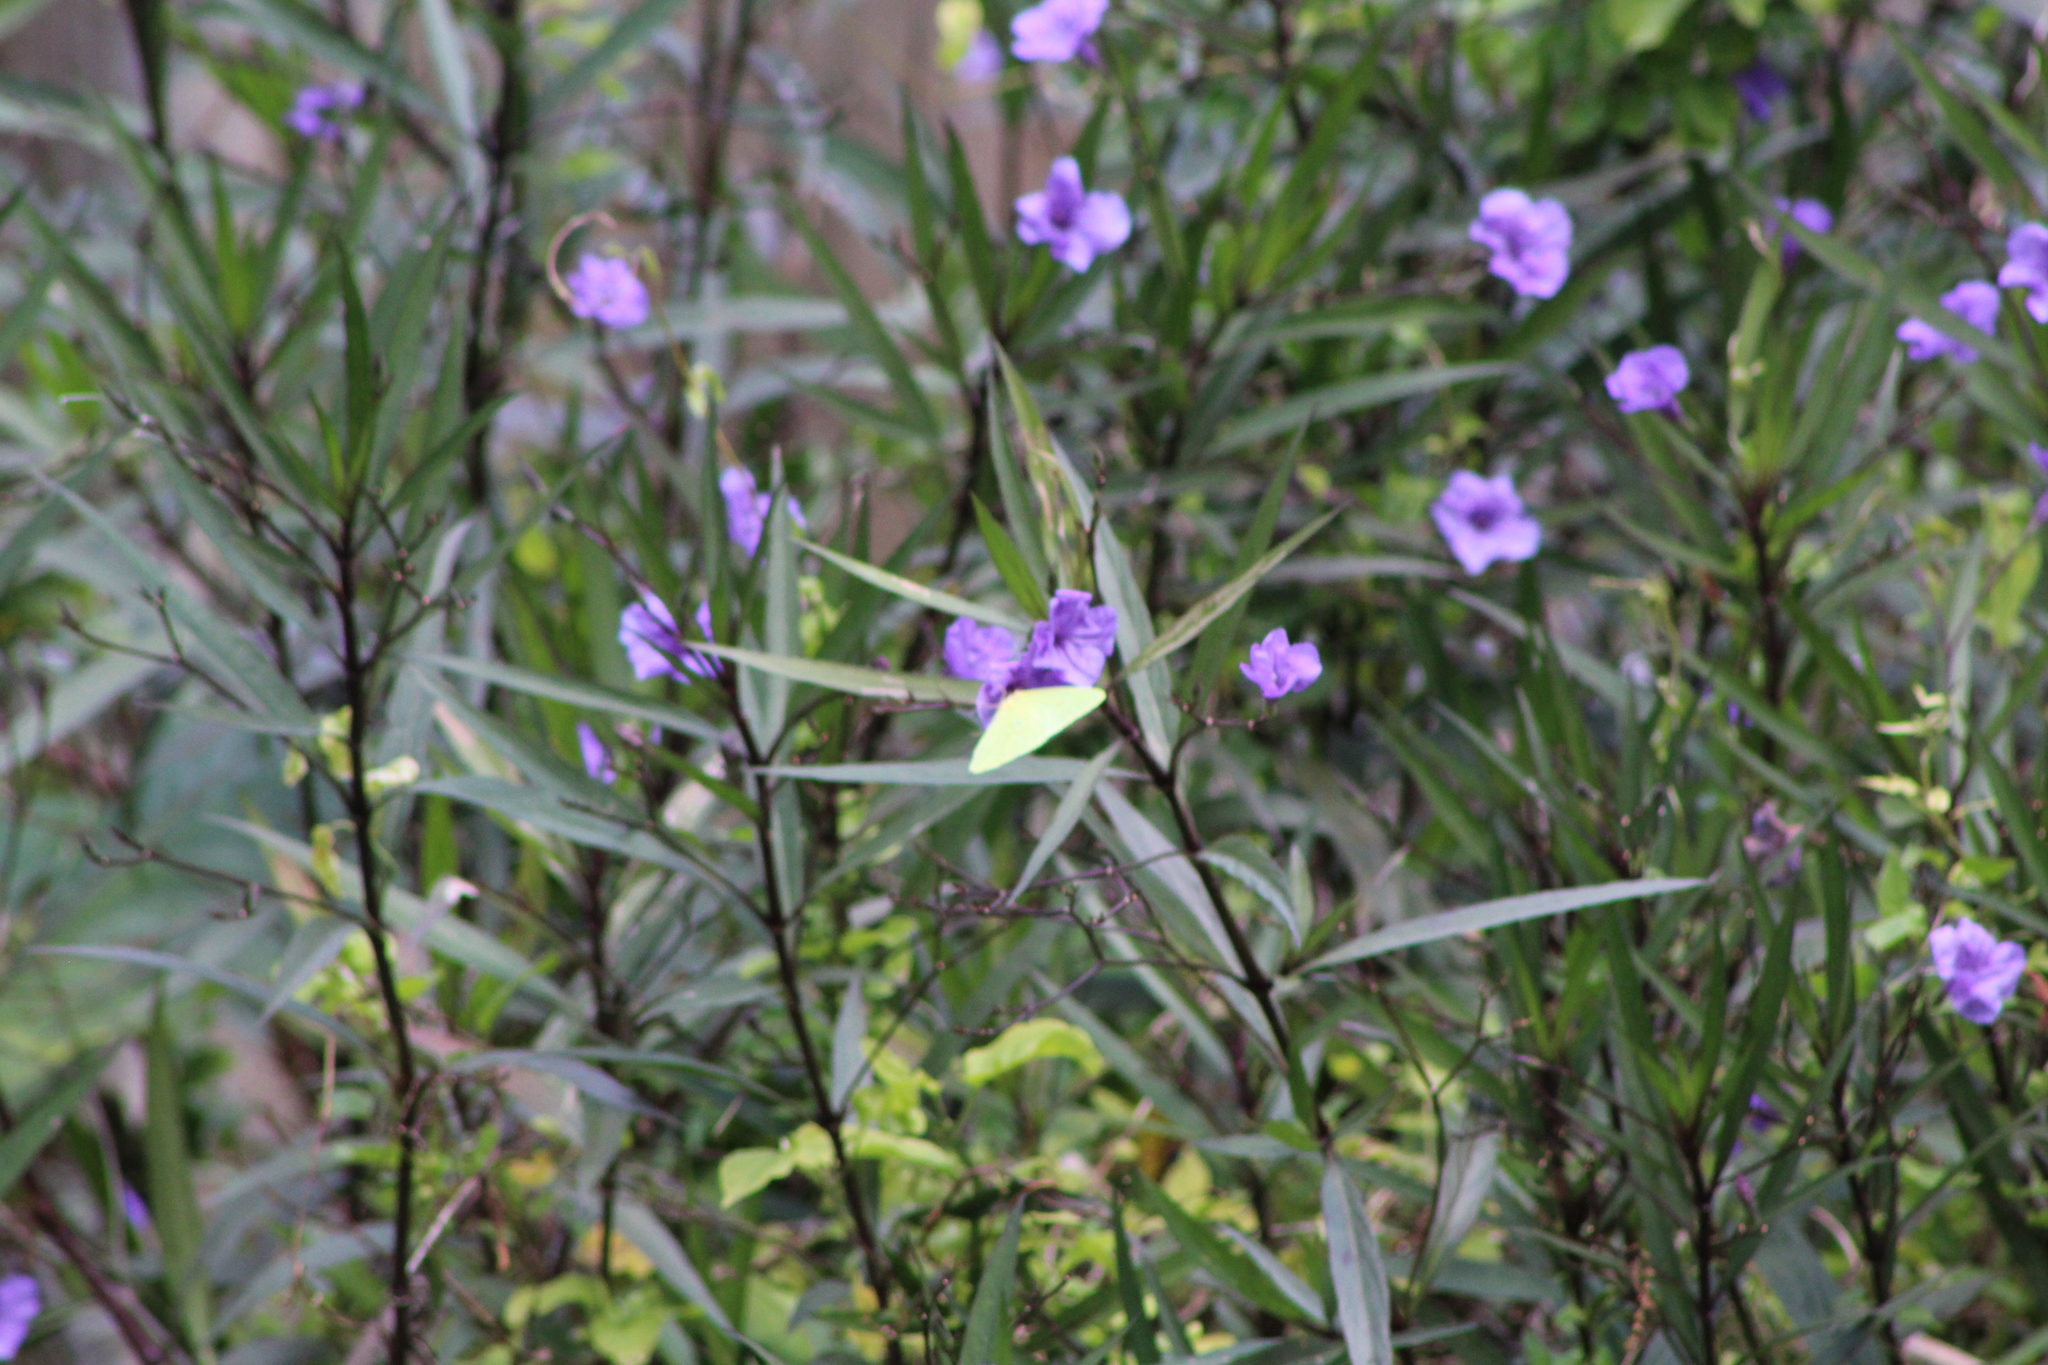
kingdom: Animalia
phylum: Arthropoda
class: Insecta
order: Lepidoptera
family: Pieridae
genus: Phoebis
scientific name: Phoebis sennae
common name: Cloudless sulphur
